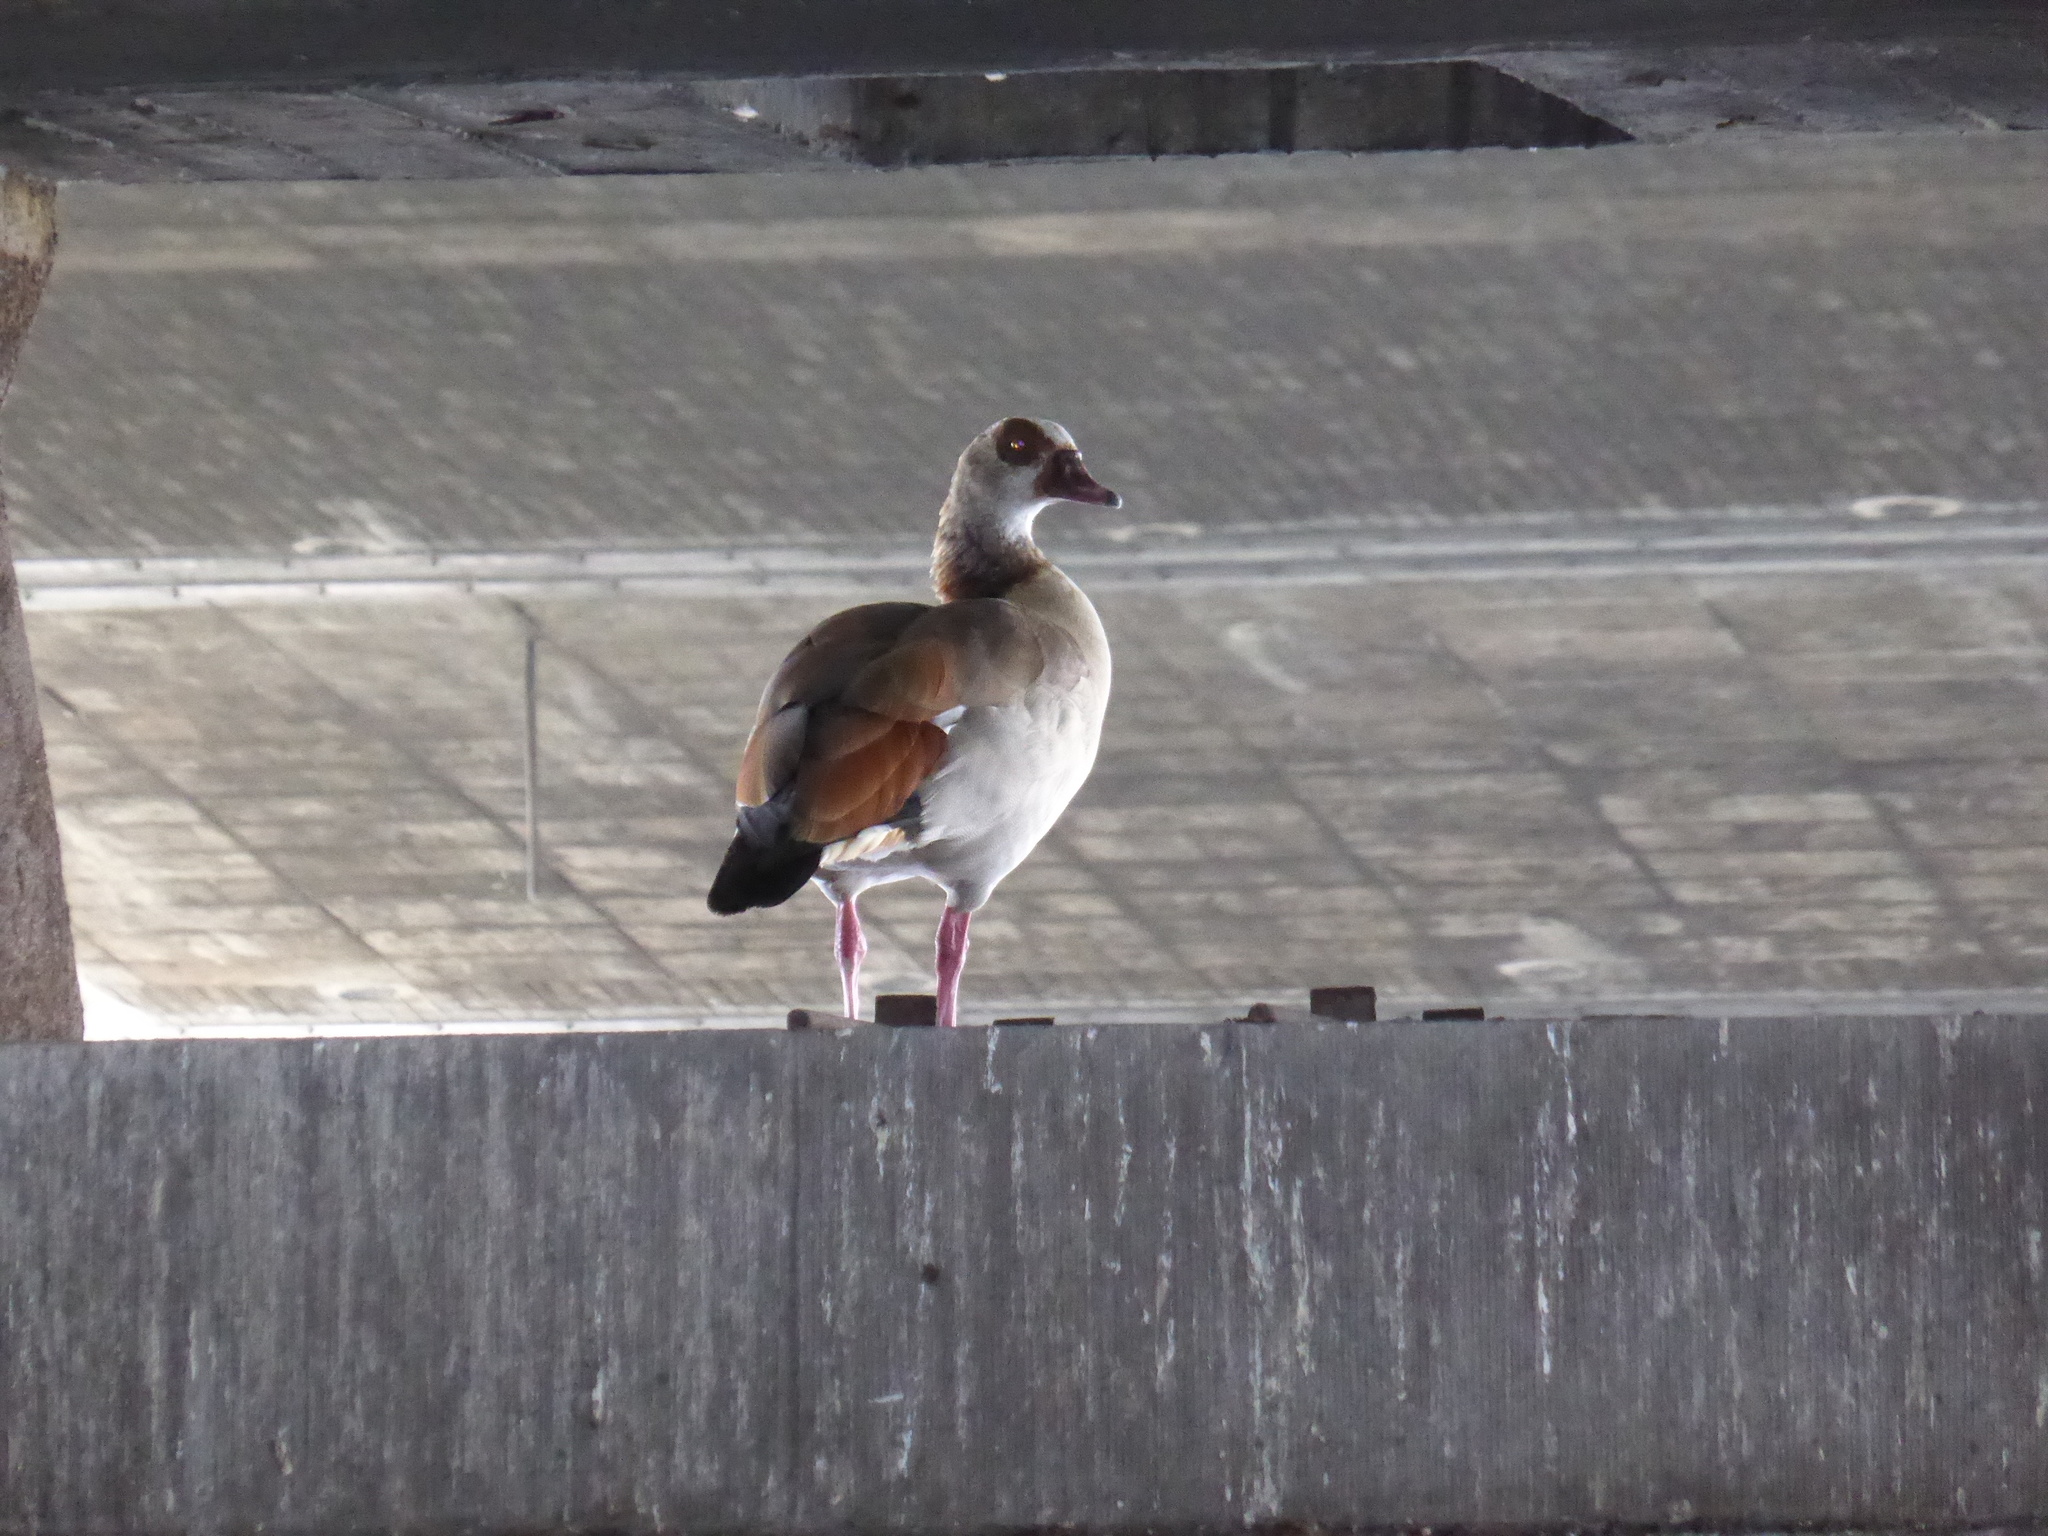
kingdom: Animalia
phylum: Chordata
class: Aves
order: Anseriformes
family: Anatidae
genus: Alopochen
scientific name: Alopochen aegyptiaca
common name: Egyptian goose
